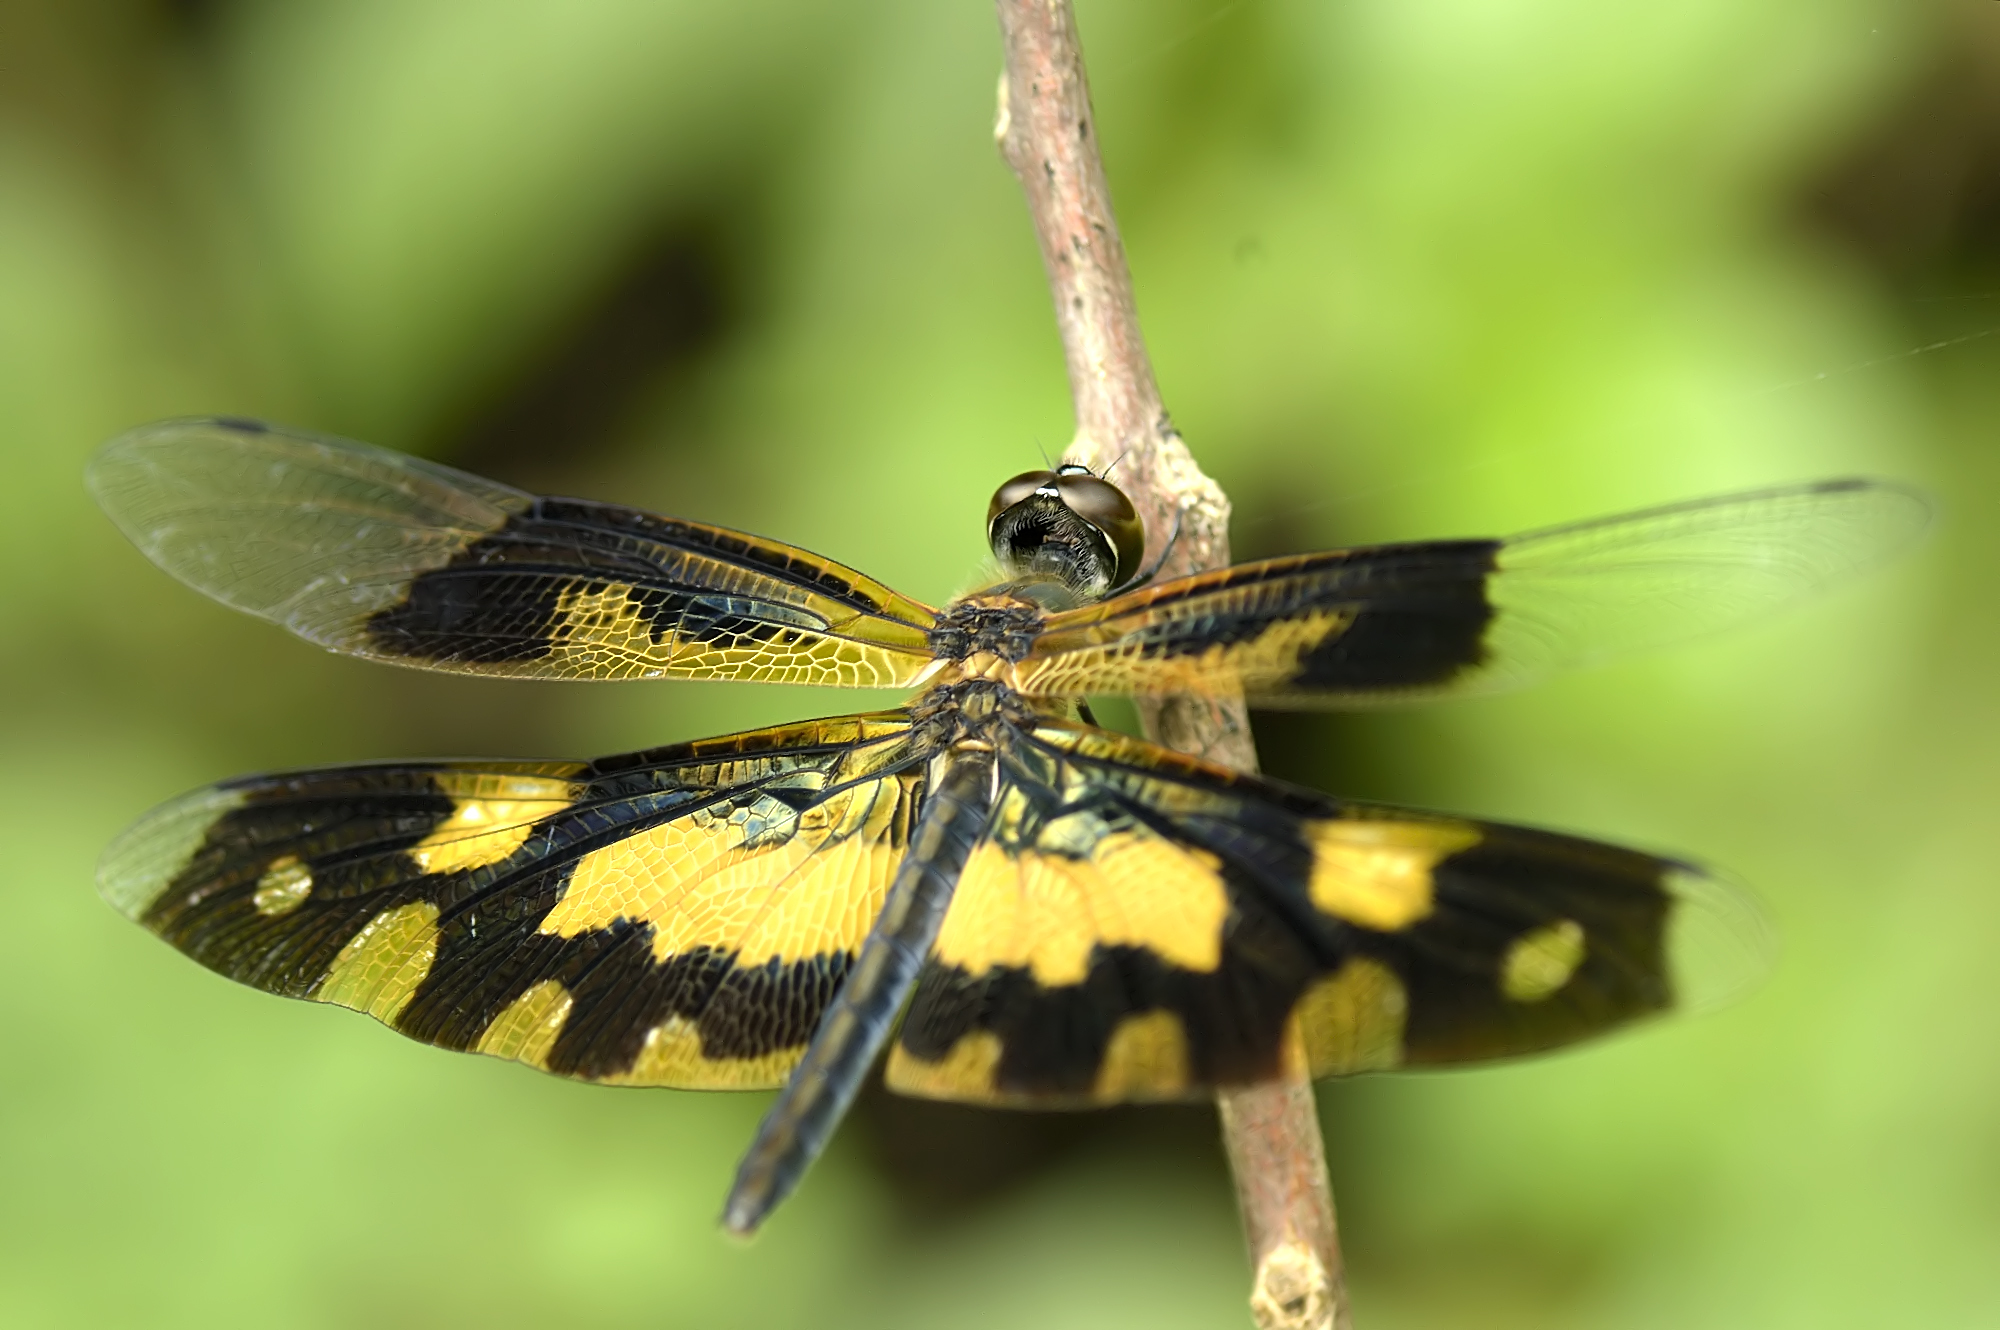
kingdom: Animalia
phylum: Arthropoda
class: Insecta
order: Odonata
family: Libellulidae
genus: Rhyothemis
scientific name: Rhyothemis variegata
